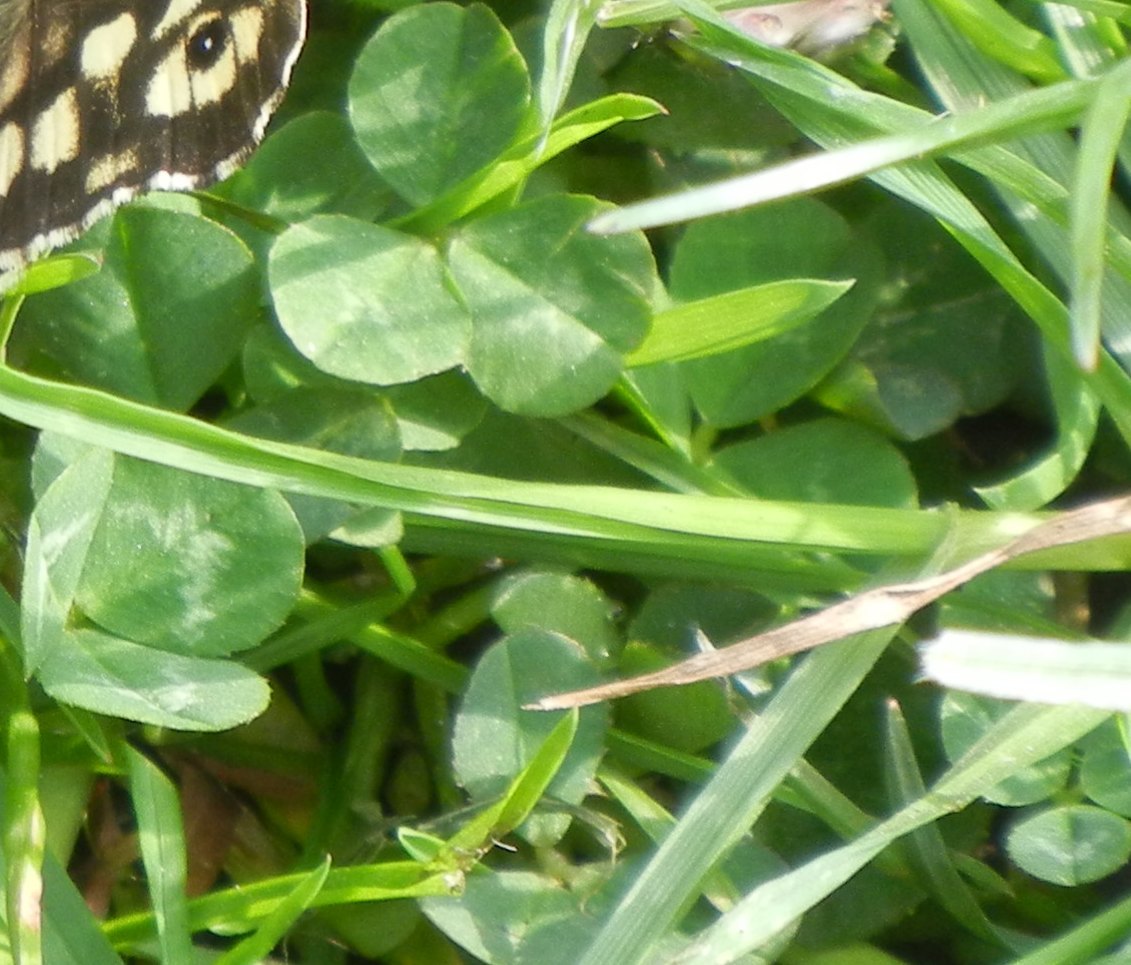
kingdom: Plantae
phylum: Tracheophyta
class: Magnoliopsida
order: Fabales
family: Fabaceae
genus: Trifolium
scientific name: Trifolium repens
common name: White clover
